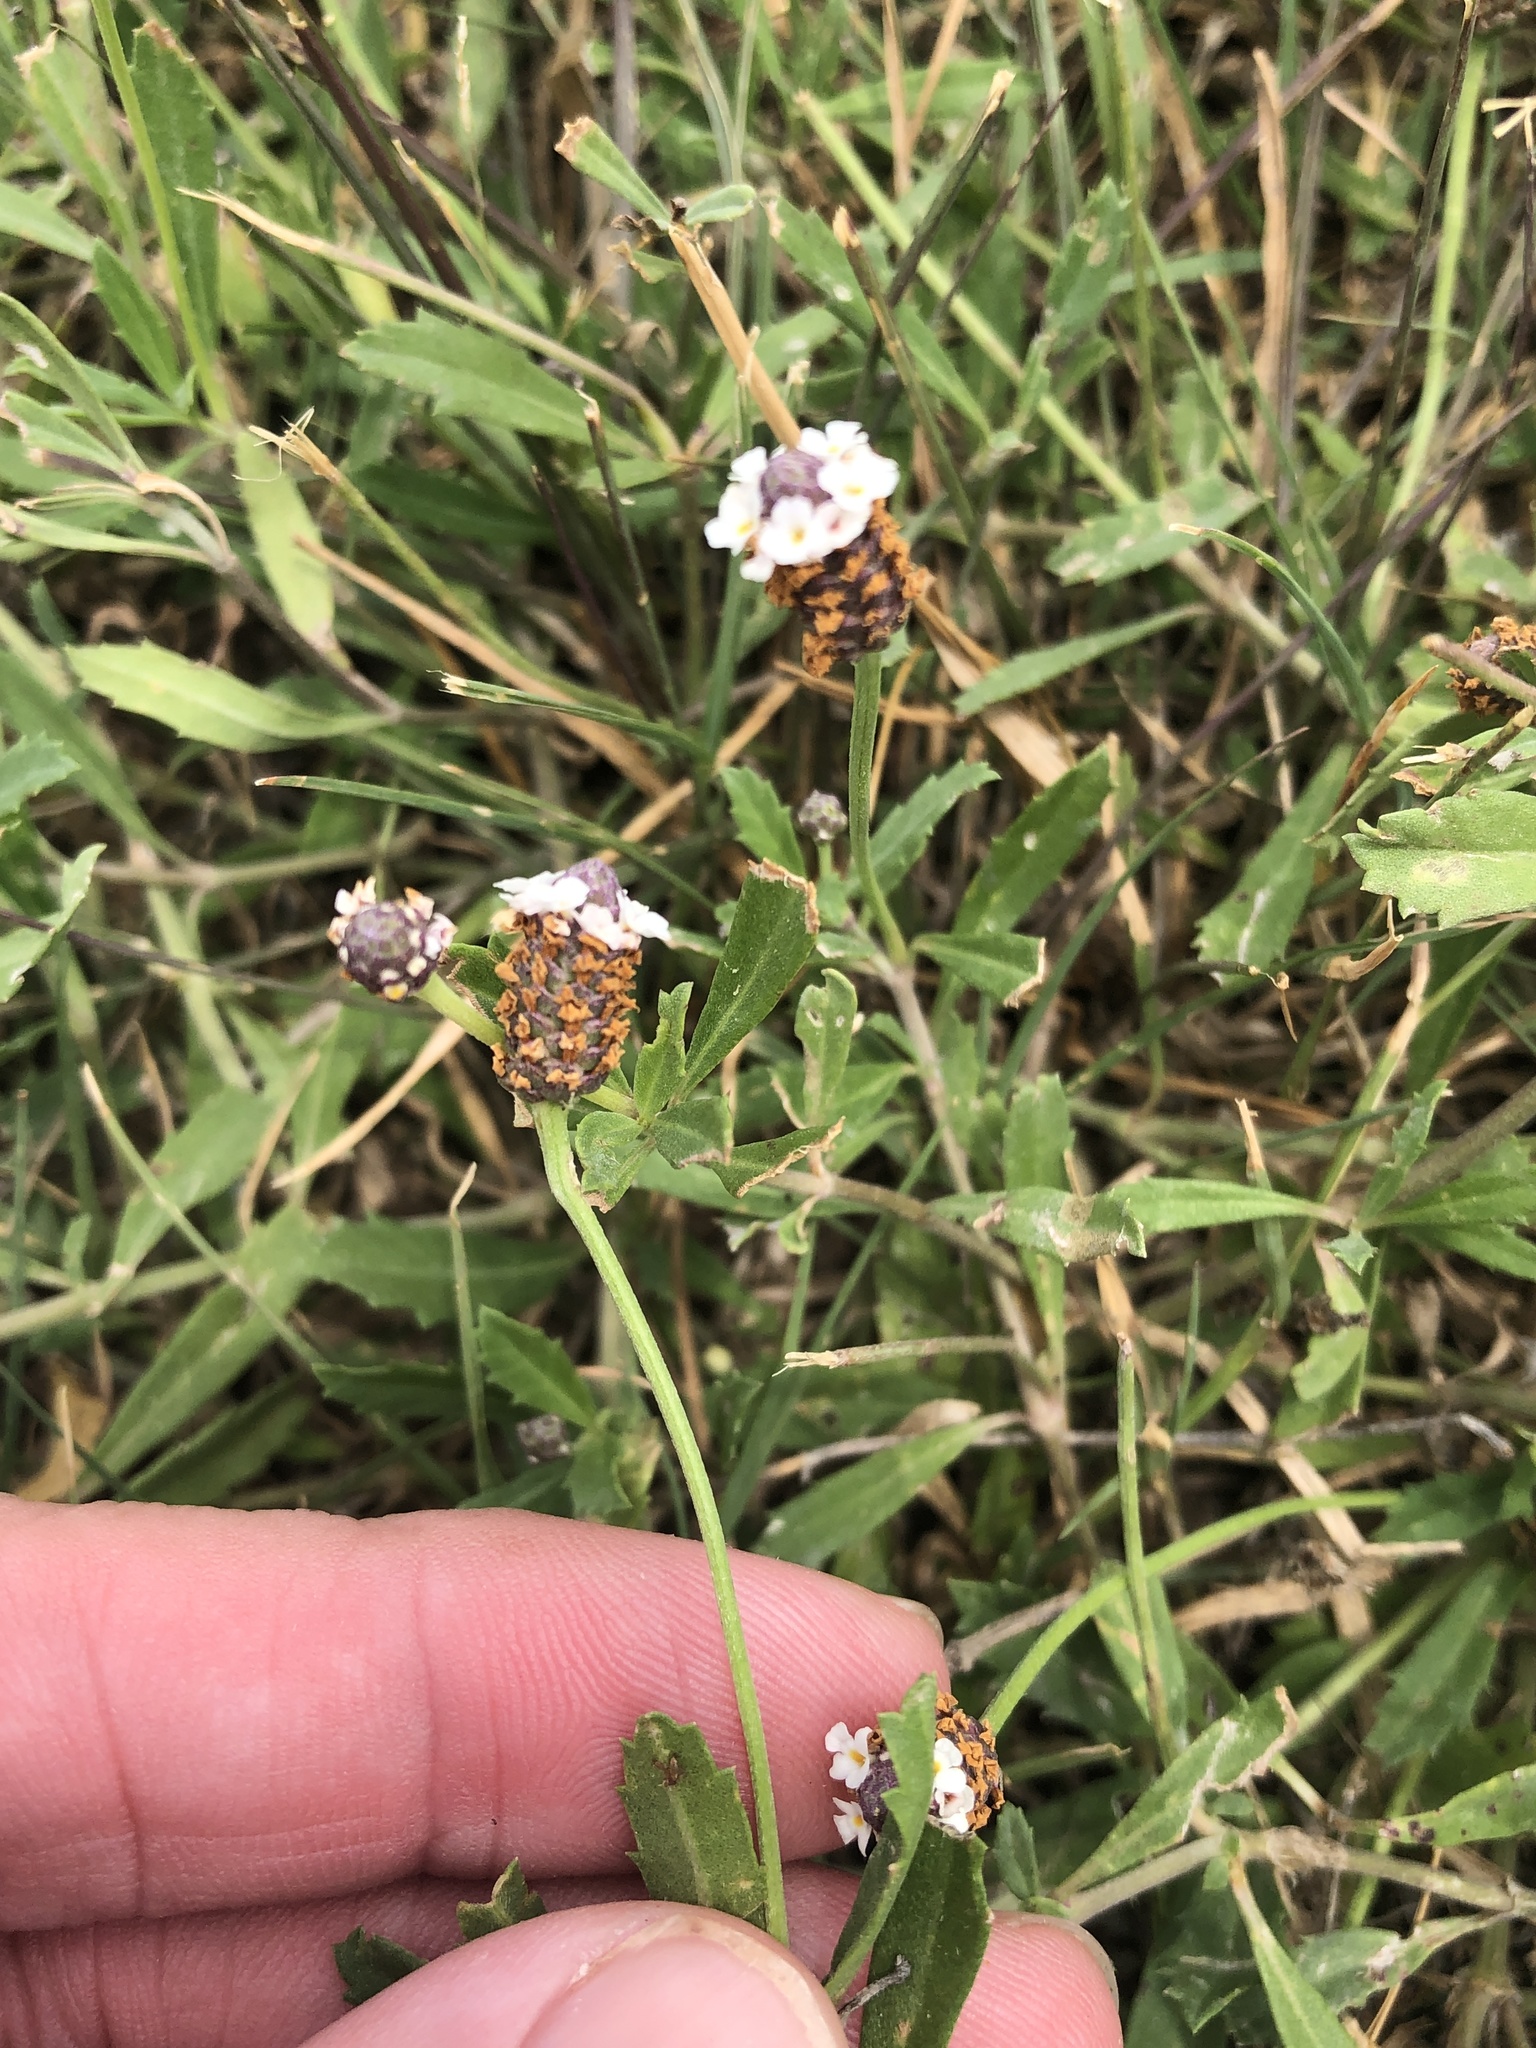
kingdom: Plantae
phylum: Tracheophyta
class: Magnoliopsida
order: Lamiales
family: Verbenaceae
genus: Phyla
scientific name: Phyla nodiflora
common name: Frogfruit
